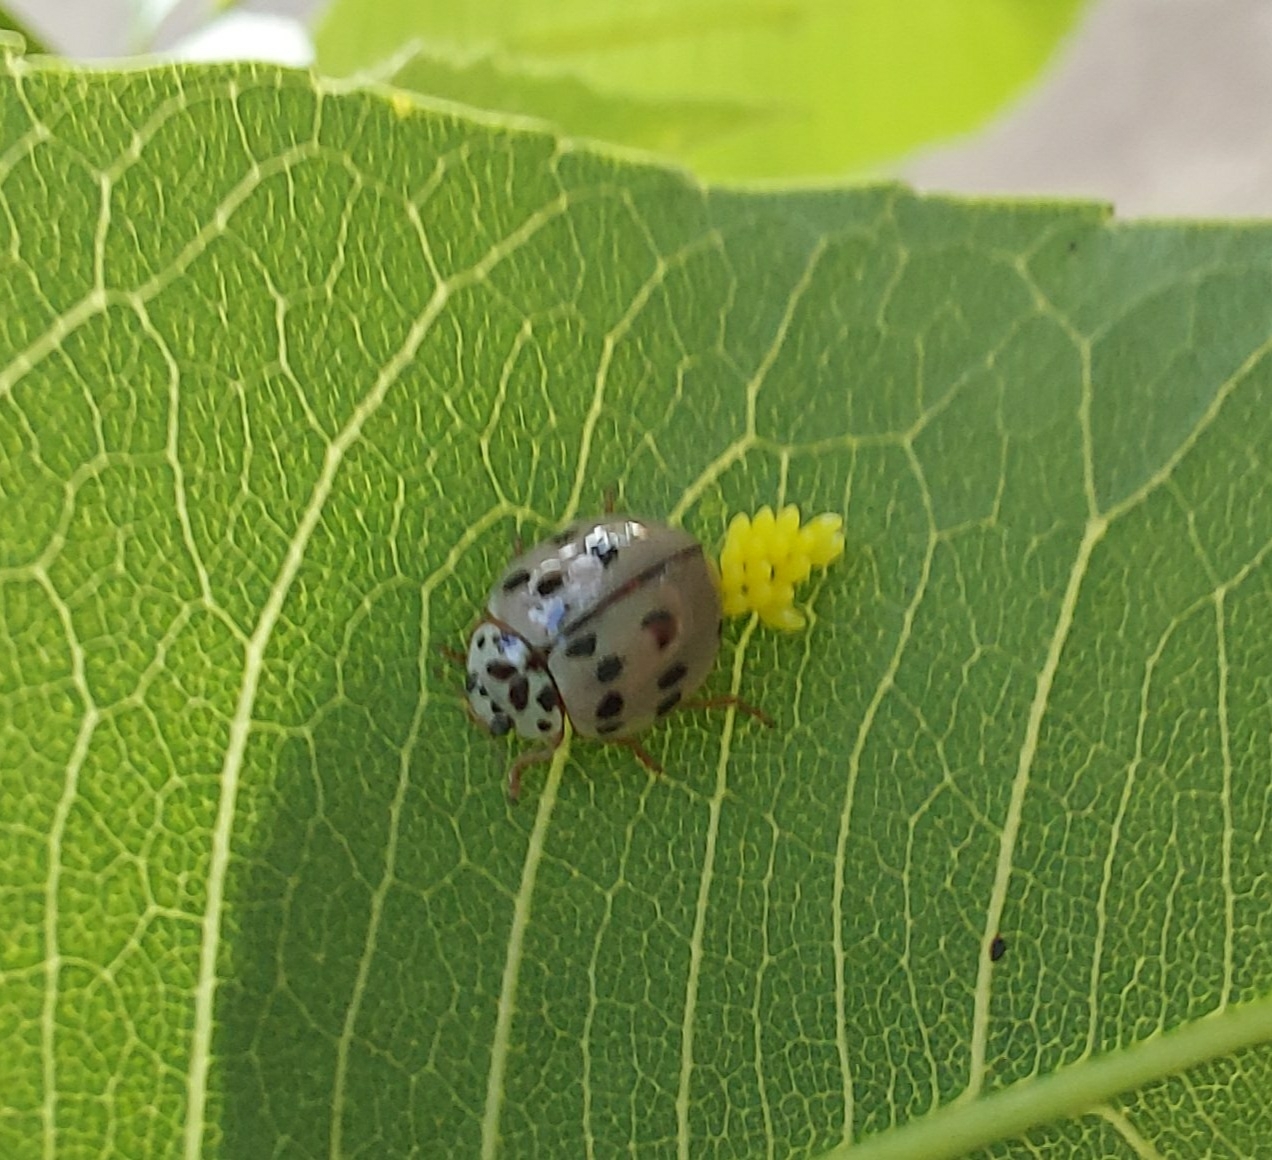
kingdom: Animalia
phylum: Arthropoda
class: Insecta
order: Coleoptera
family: Coccinellidae
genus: Olla
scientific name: Olla v-nigrum
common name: Ashy gray lady beetle
